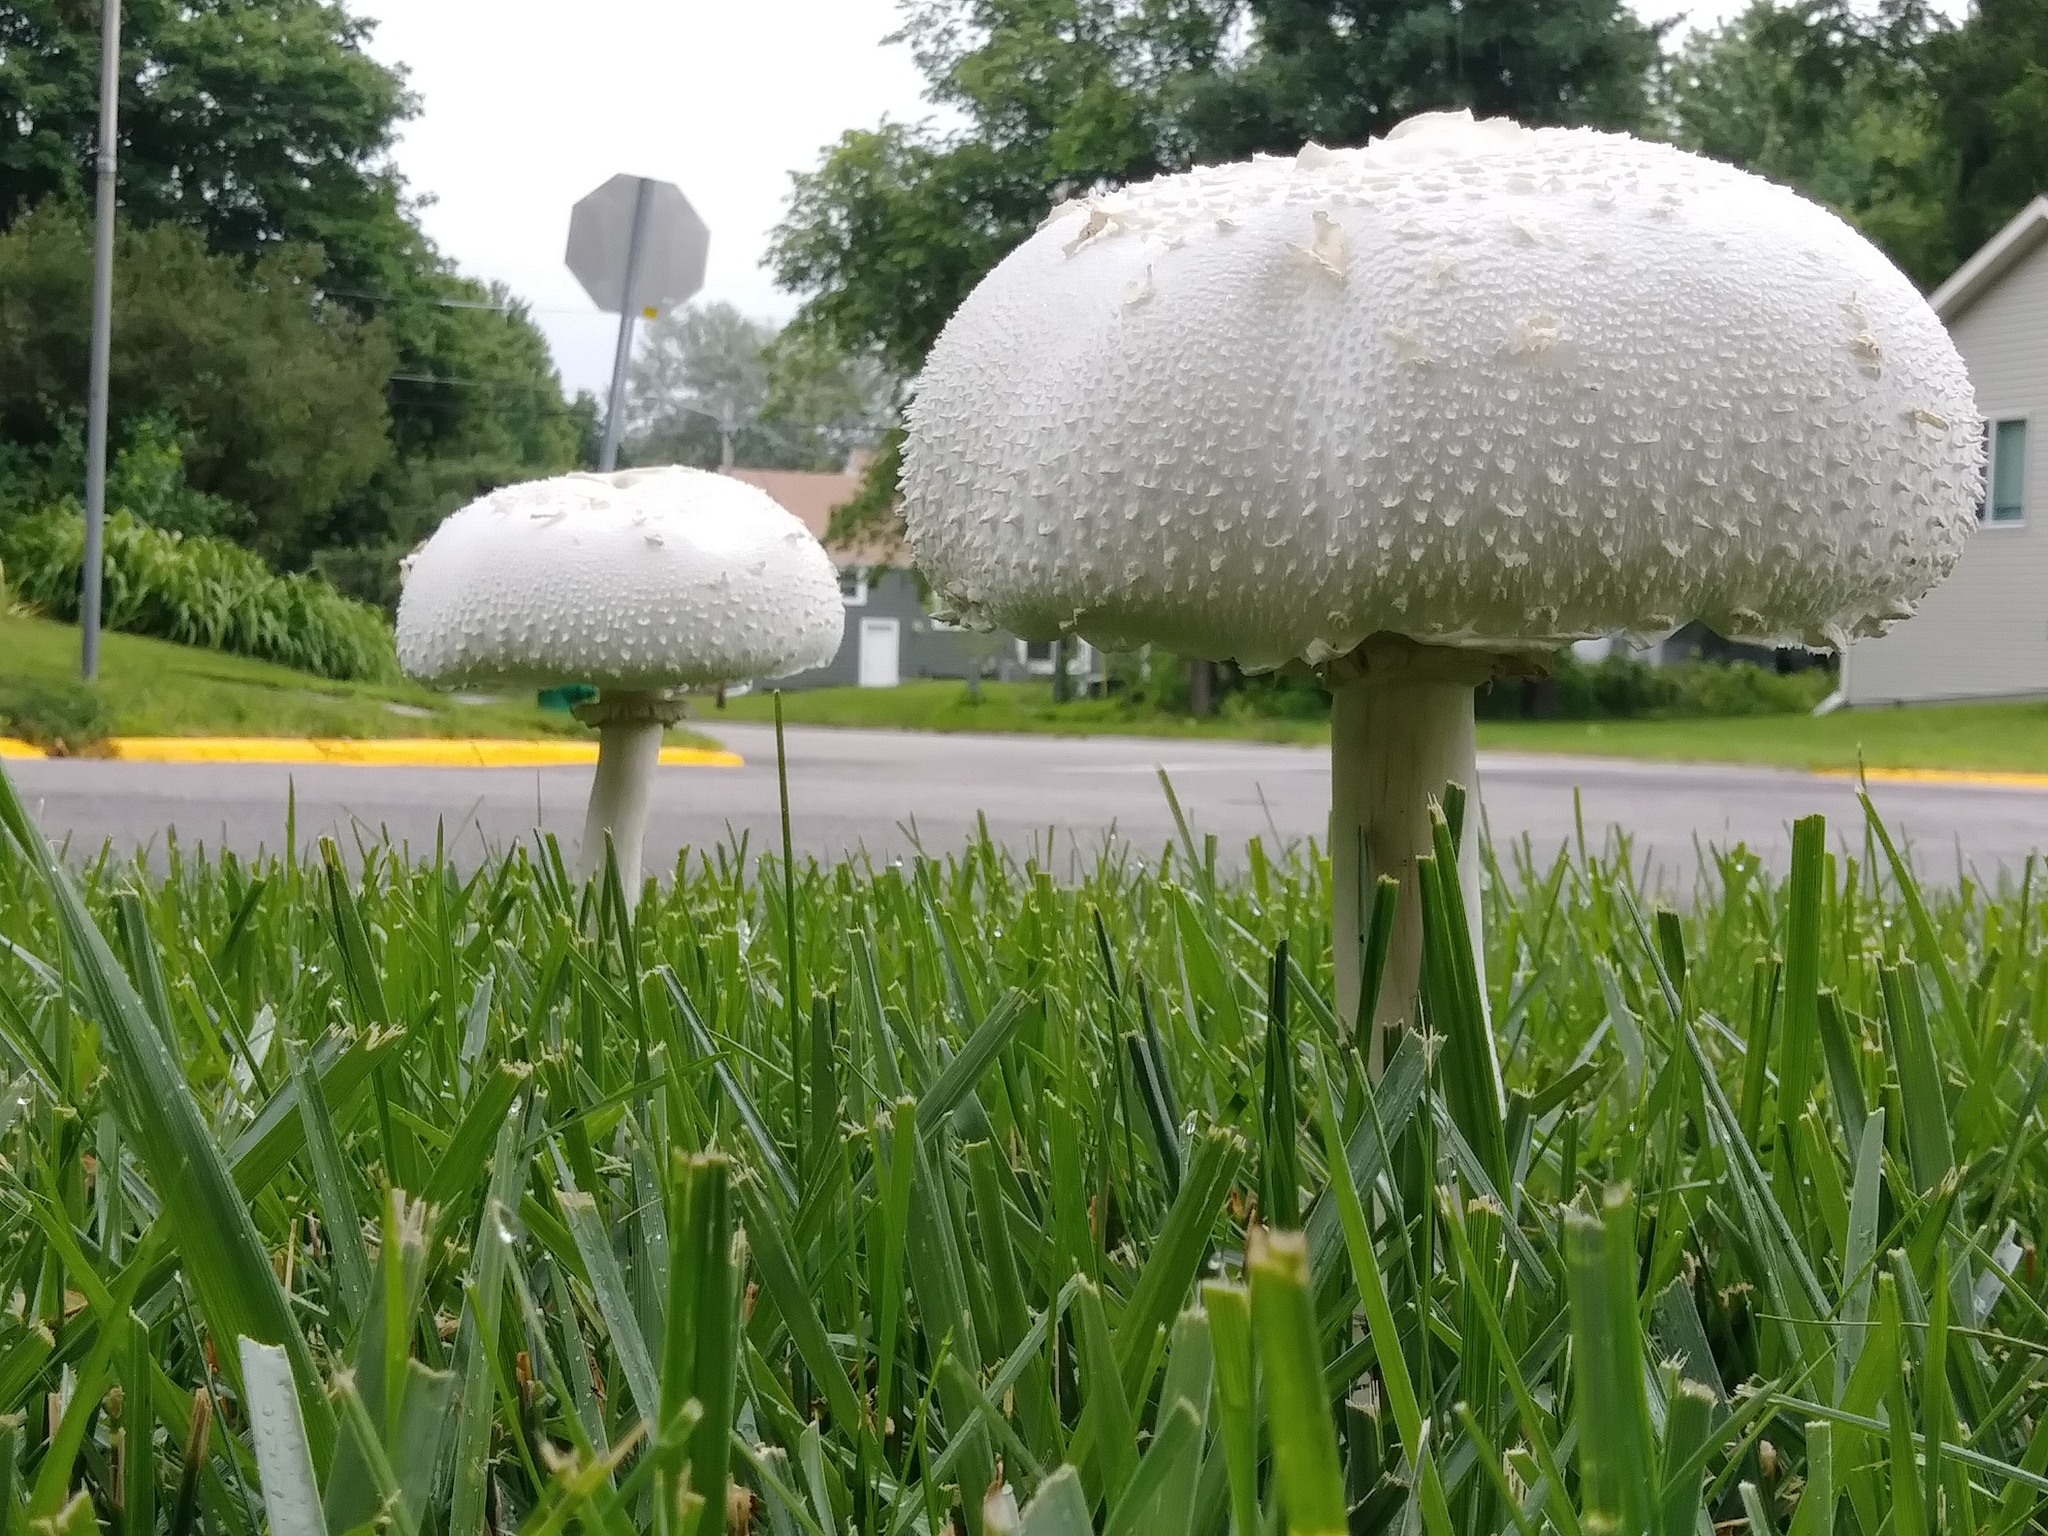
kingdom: Fungi
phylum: Basidiomycota
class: Agaricomycetes
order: Agaricales
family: Agaricaceae
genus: Chlorophyllum
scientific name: Chlorophyllum molybdites
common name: False parasol
